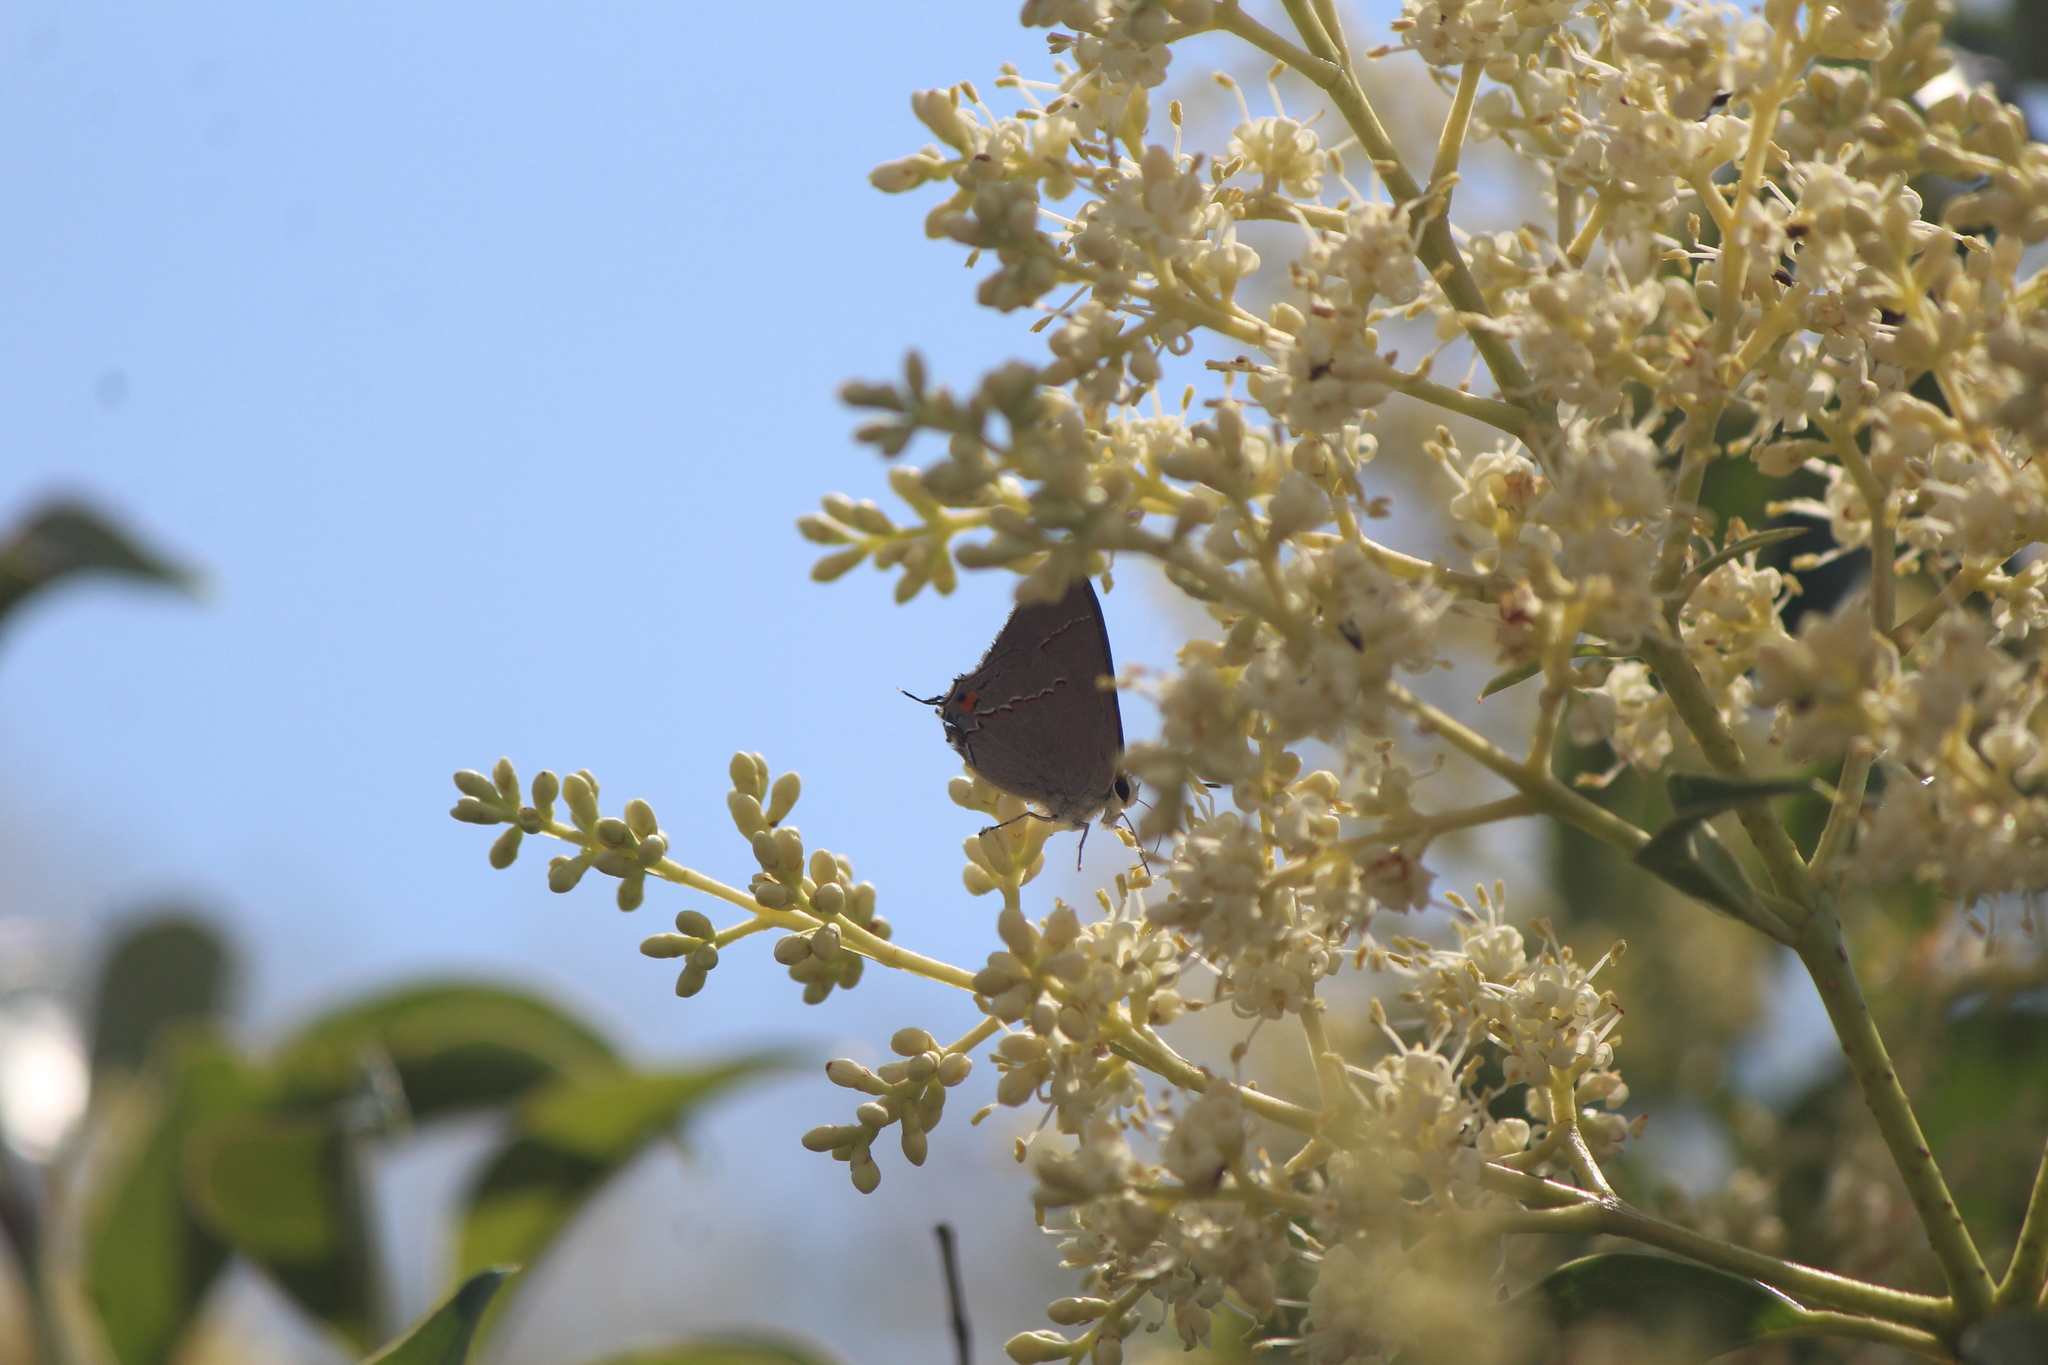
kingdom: Animalia
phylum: Arthropoda
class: Insecta
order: Lepidoptera
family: Lycaenidae
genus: Strymon
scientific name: Strymon melinus
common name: Gray hairstreak
